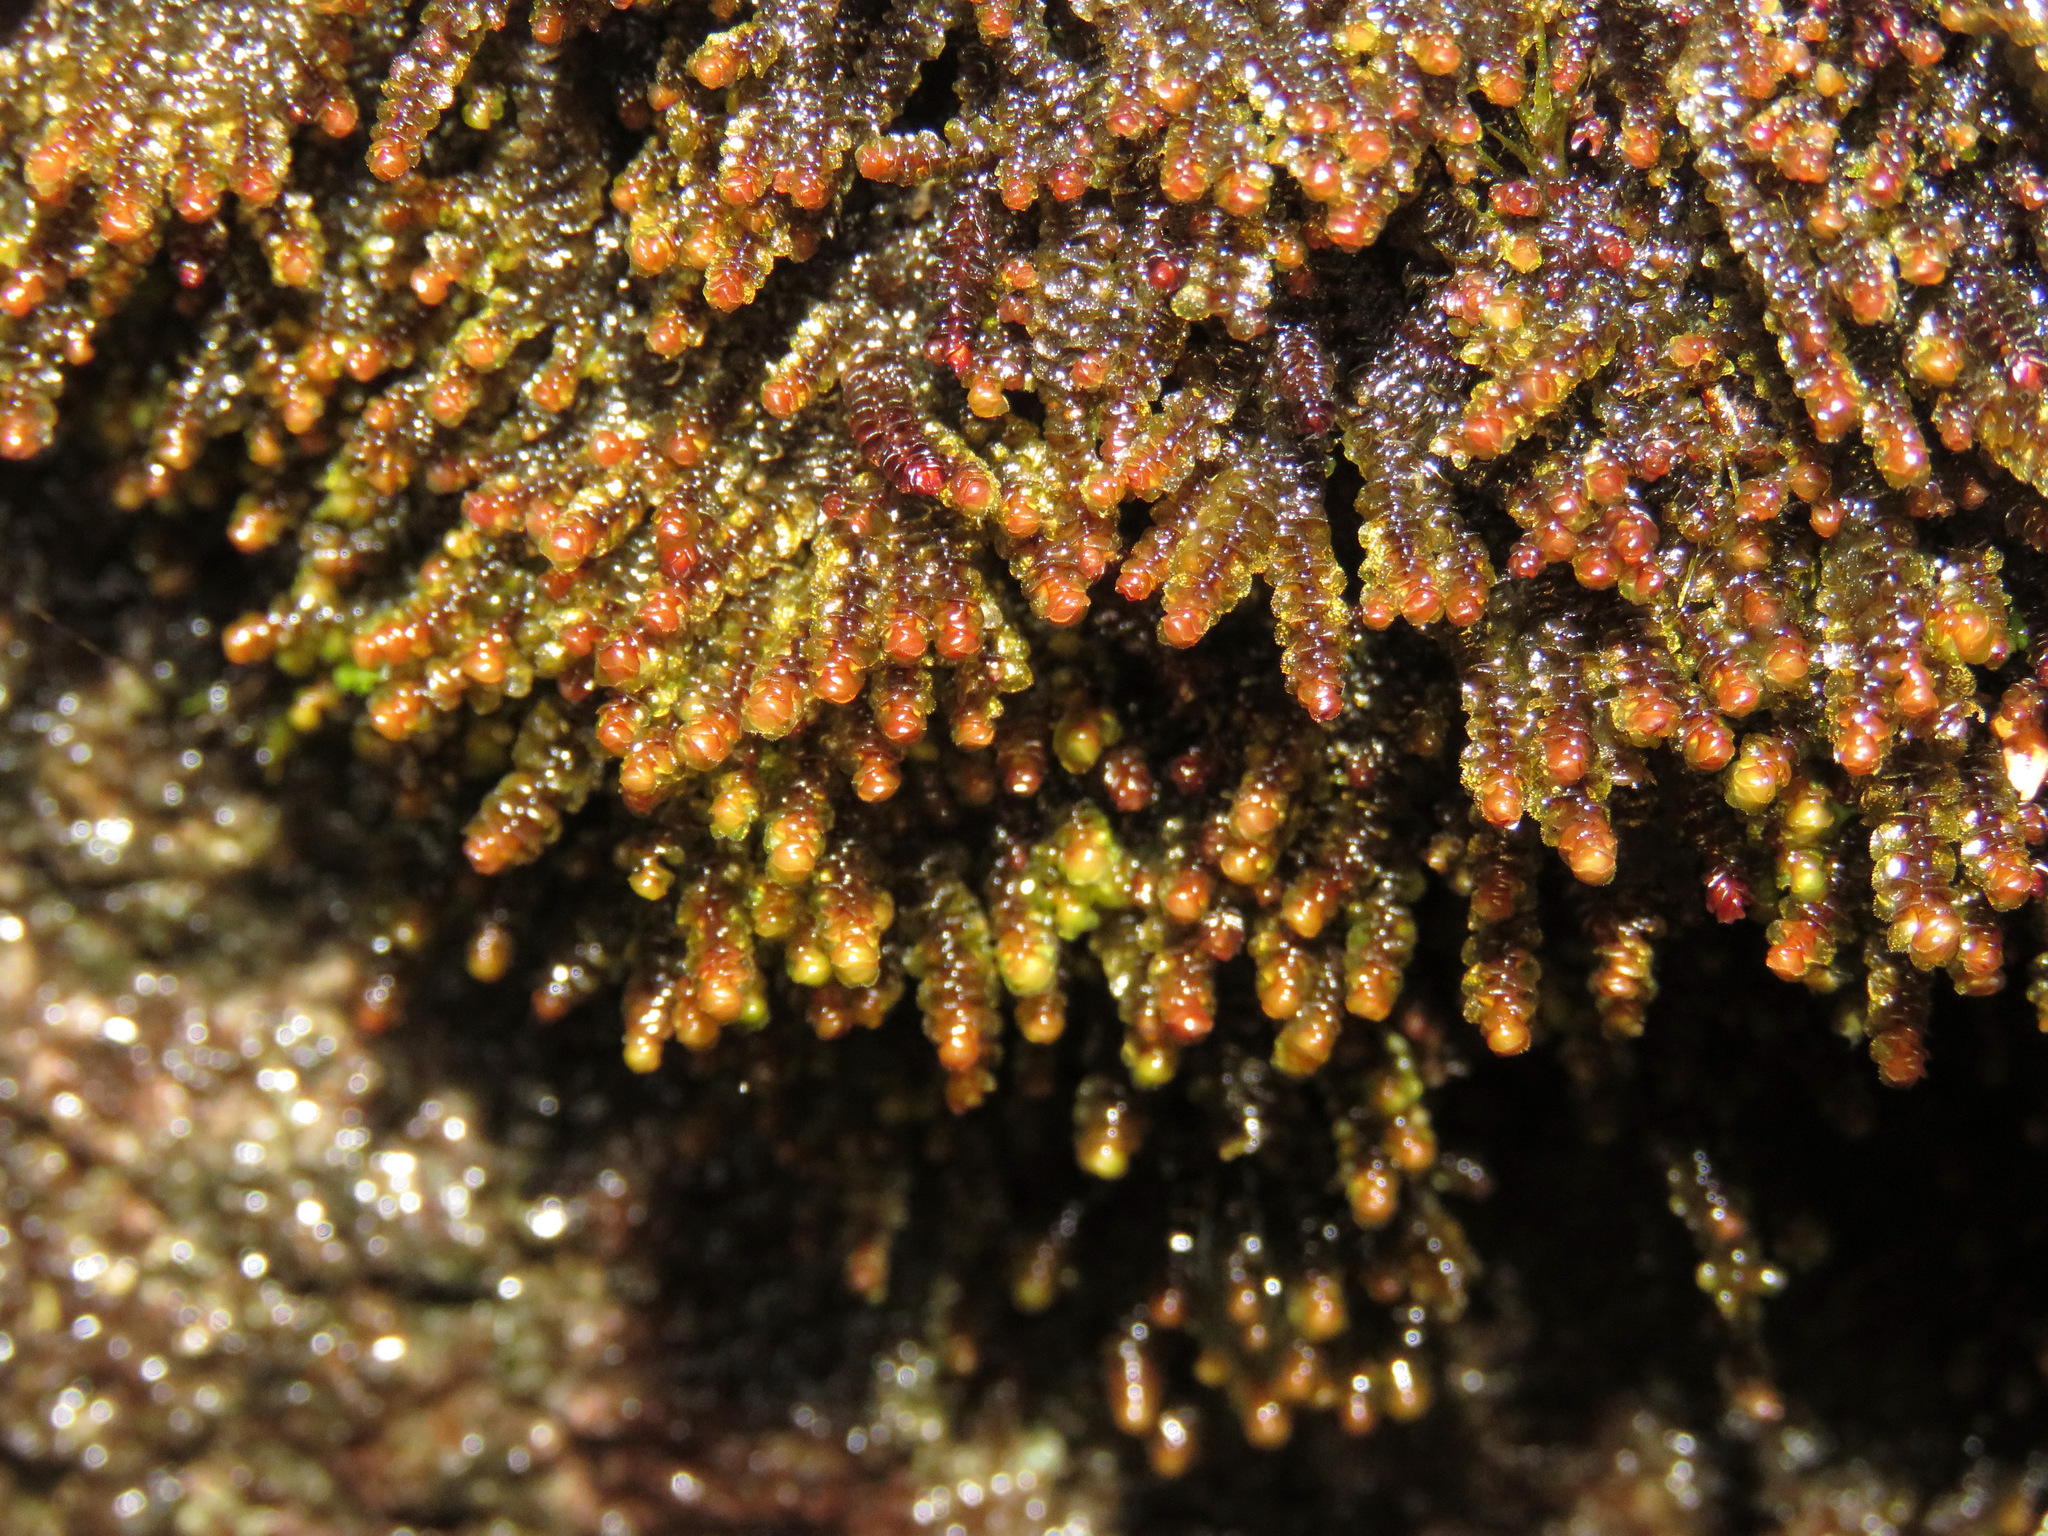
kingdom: Plantae
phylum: Marchantiophyta
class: Jungermanniopsida
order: Jungermanniales
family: Scapaniaceae
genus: Scapania
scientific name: Scapania bolanderi
